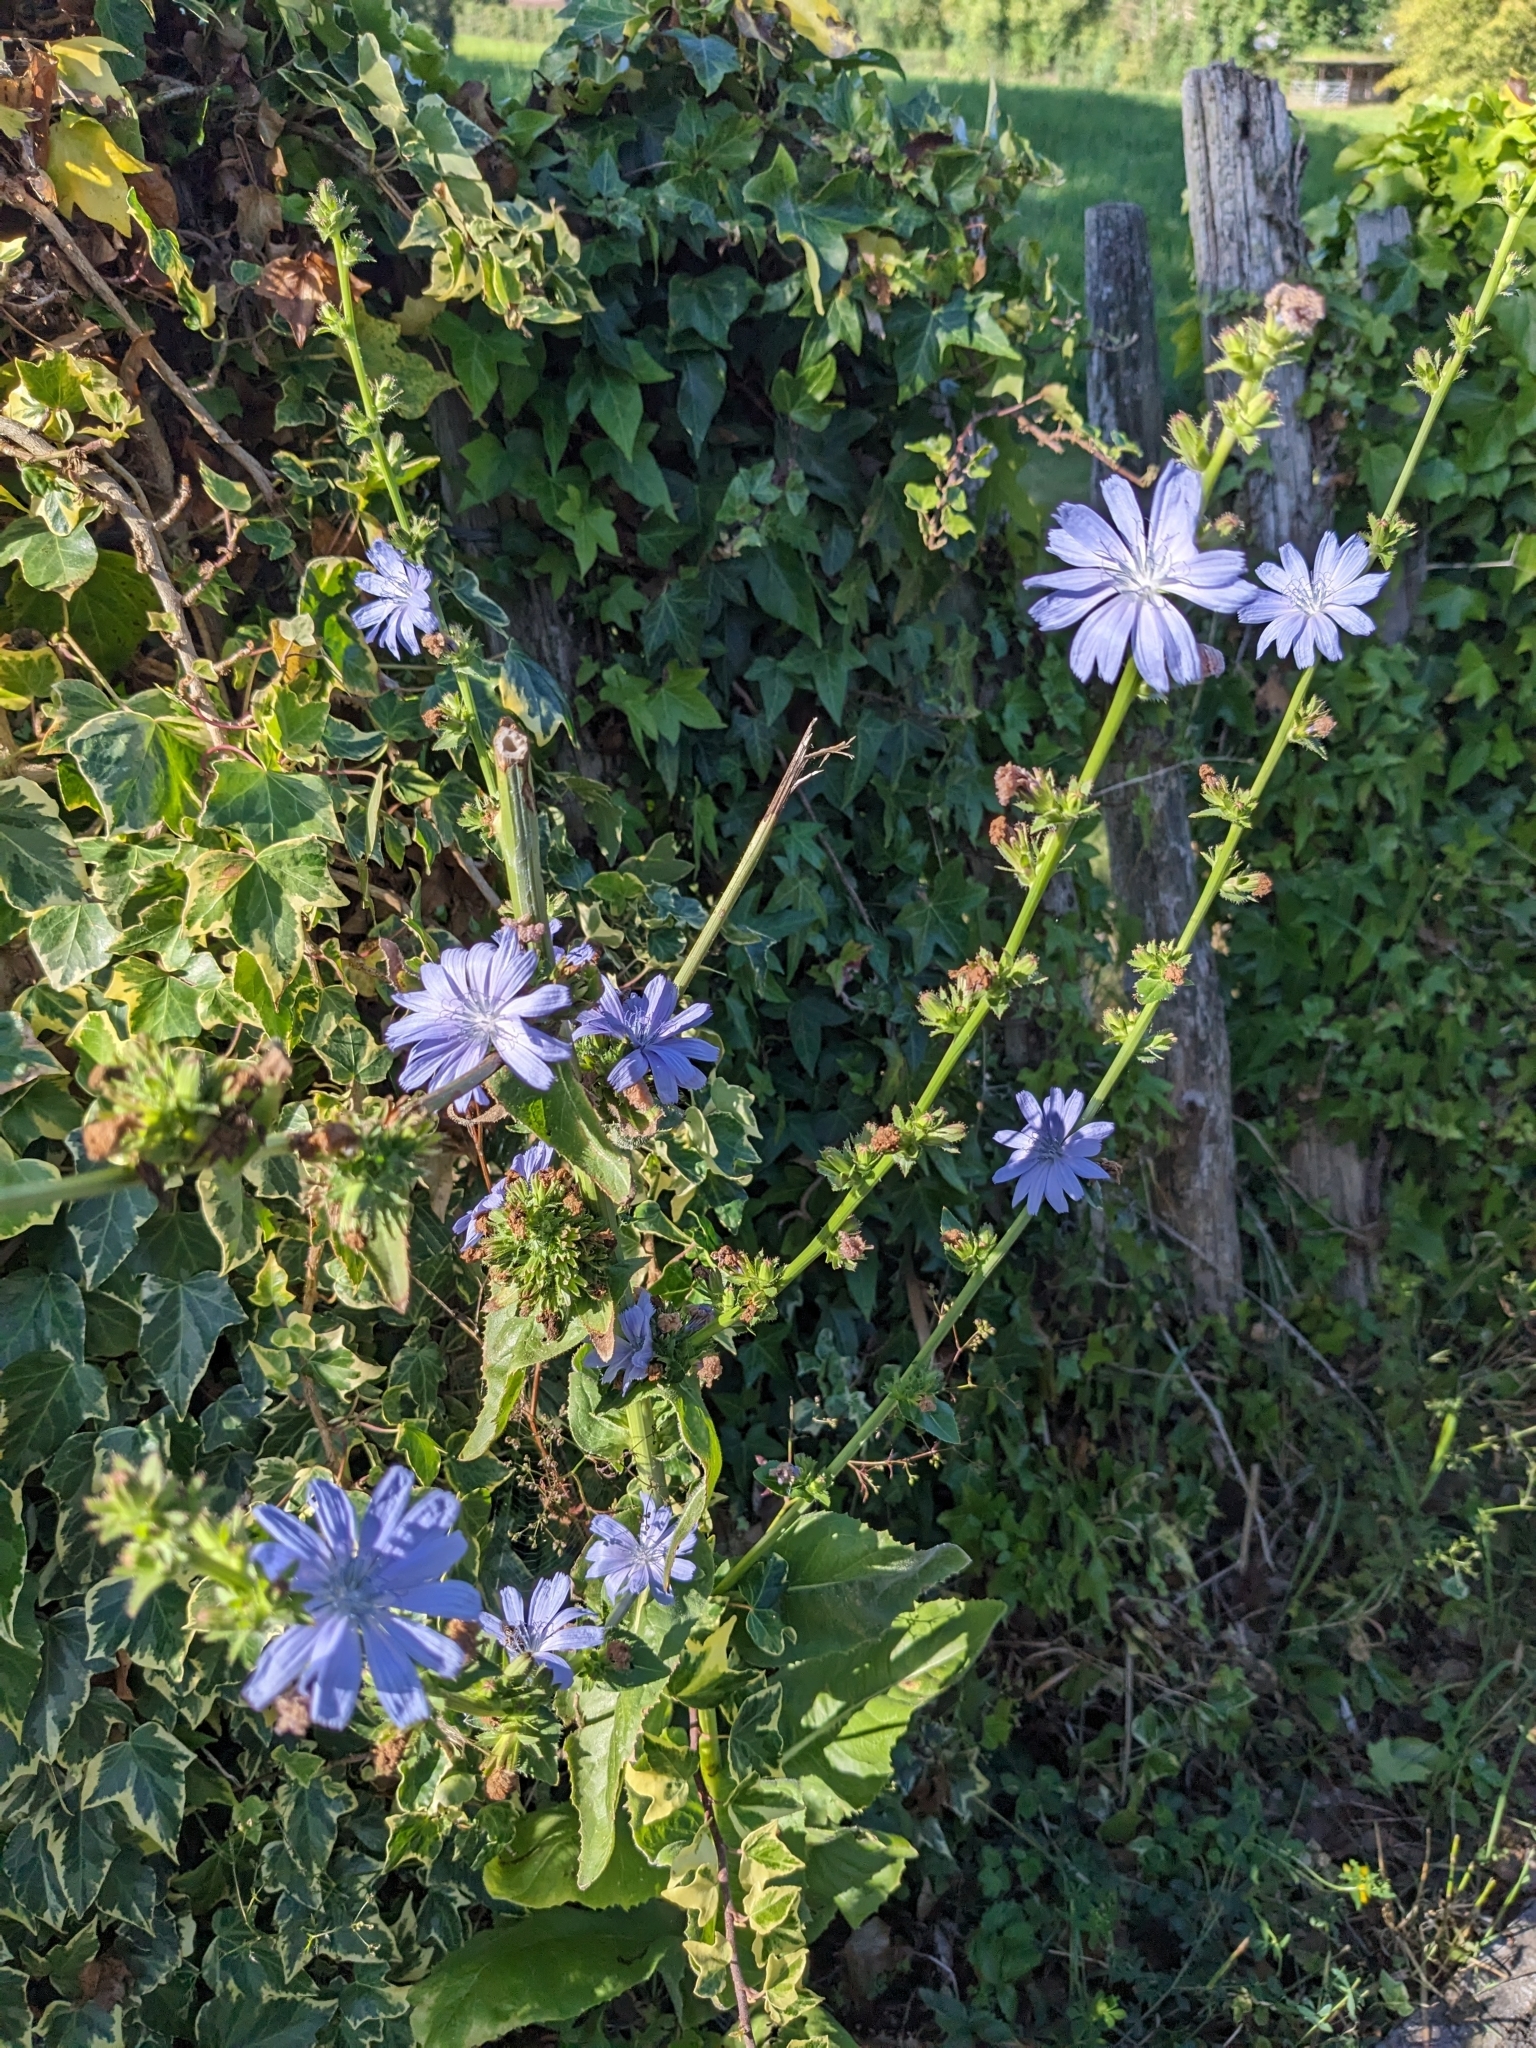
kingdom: Plantae
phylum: Tracheophyta
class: Magnoliopsida
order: Asterales
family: Asteraceae
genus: Cichorium
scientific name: Cichorium intybus
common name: Chicory
